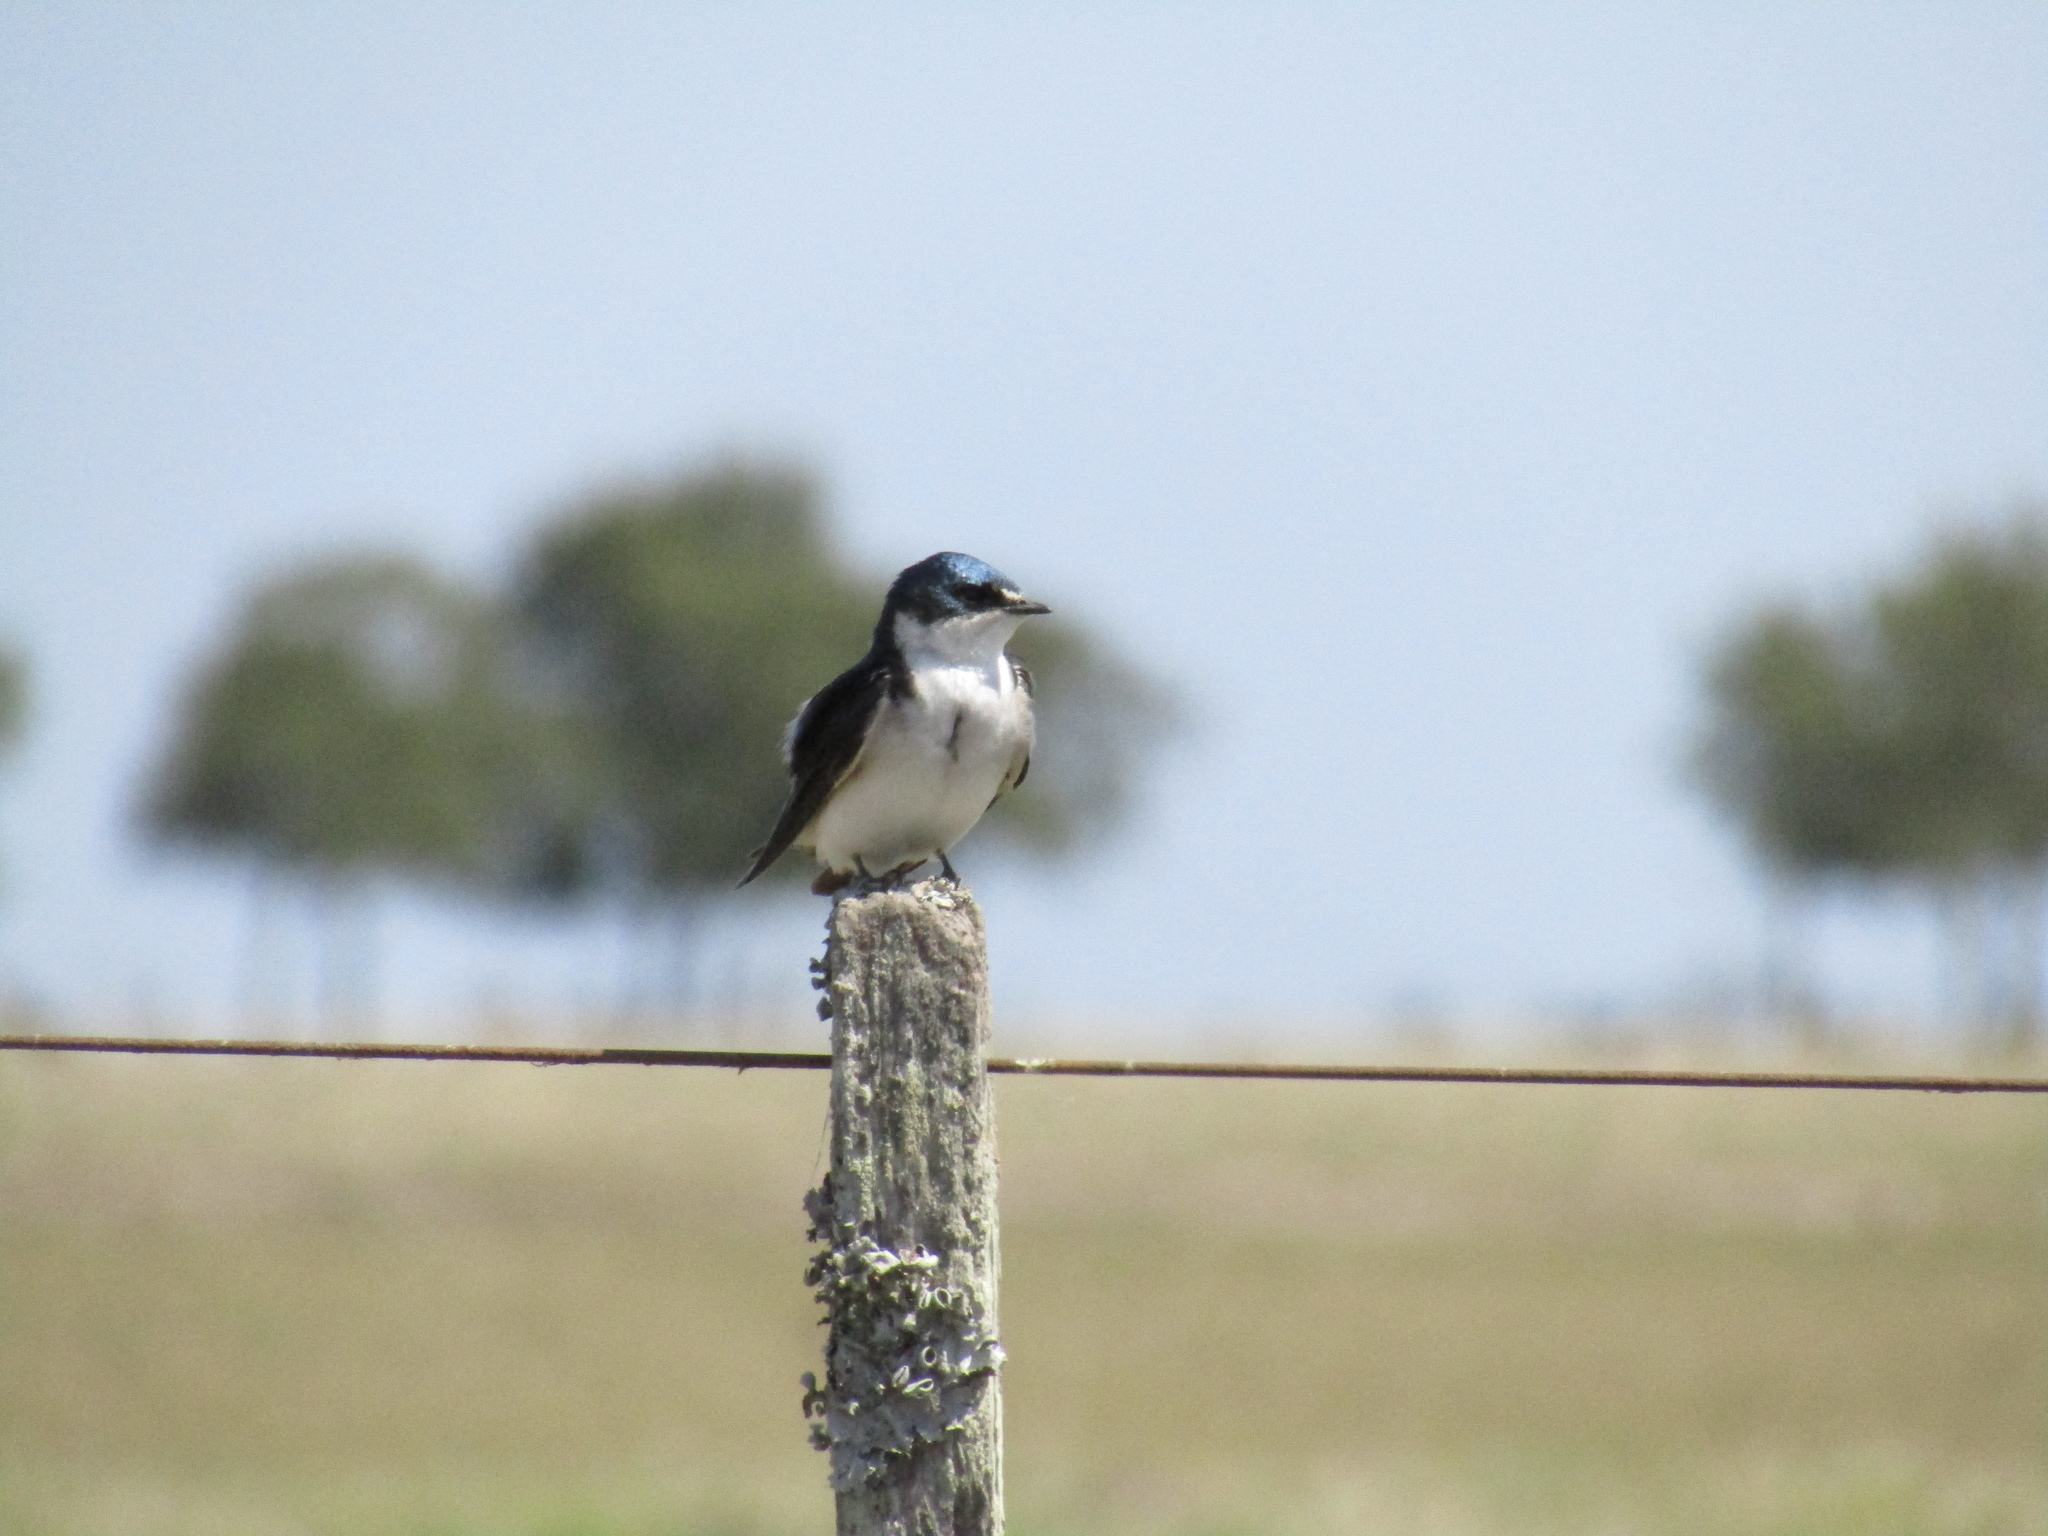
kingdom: Animalia
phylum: Chordata
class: Aves
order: Passeriformes
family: Hirundinidae
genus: Tachycineta
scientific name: Tachycineta leucorrhoa
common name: White-rumped swallow
